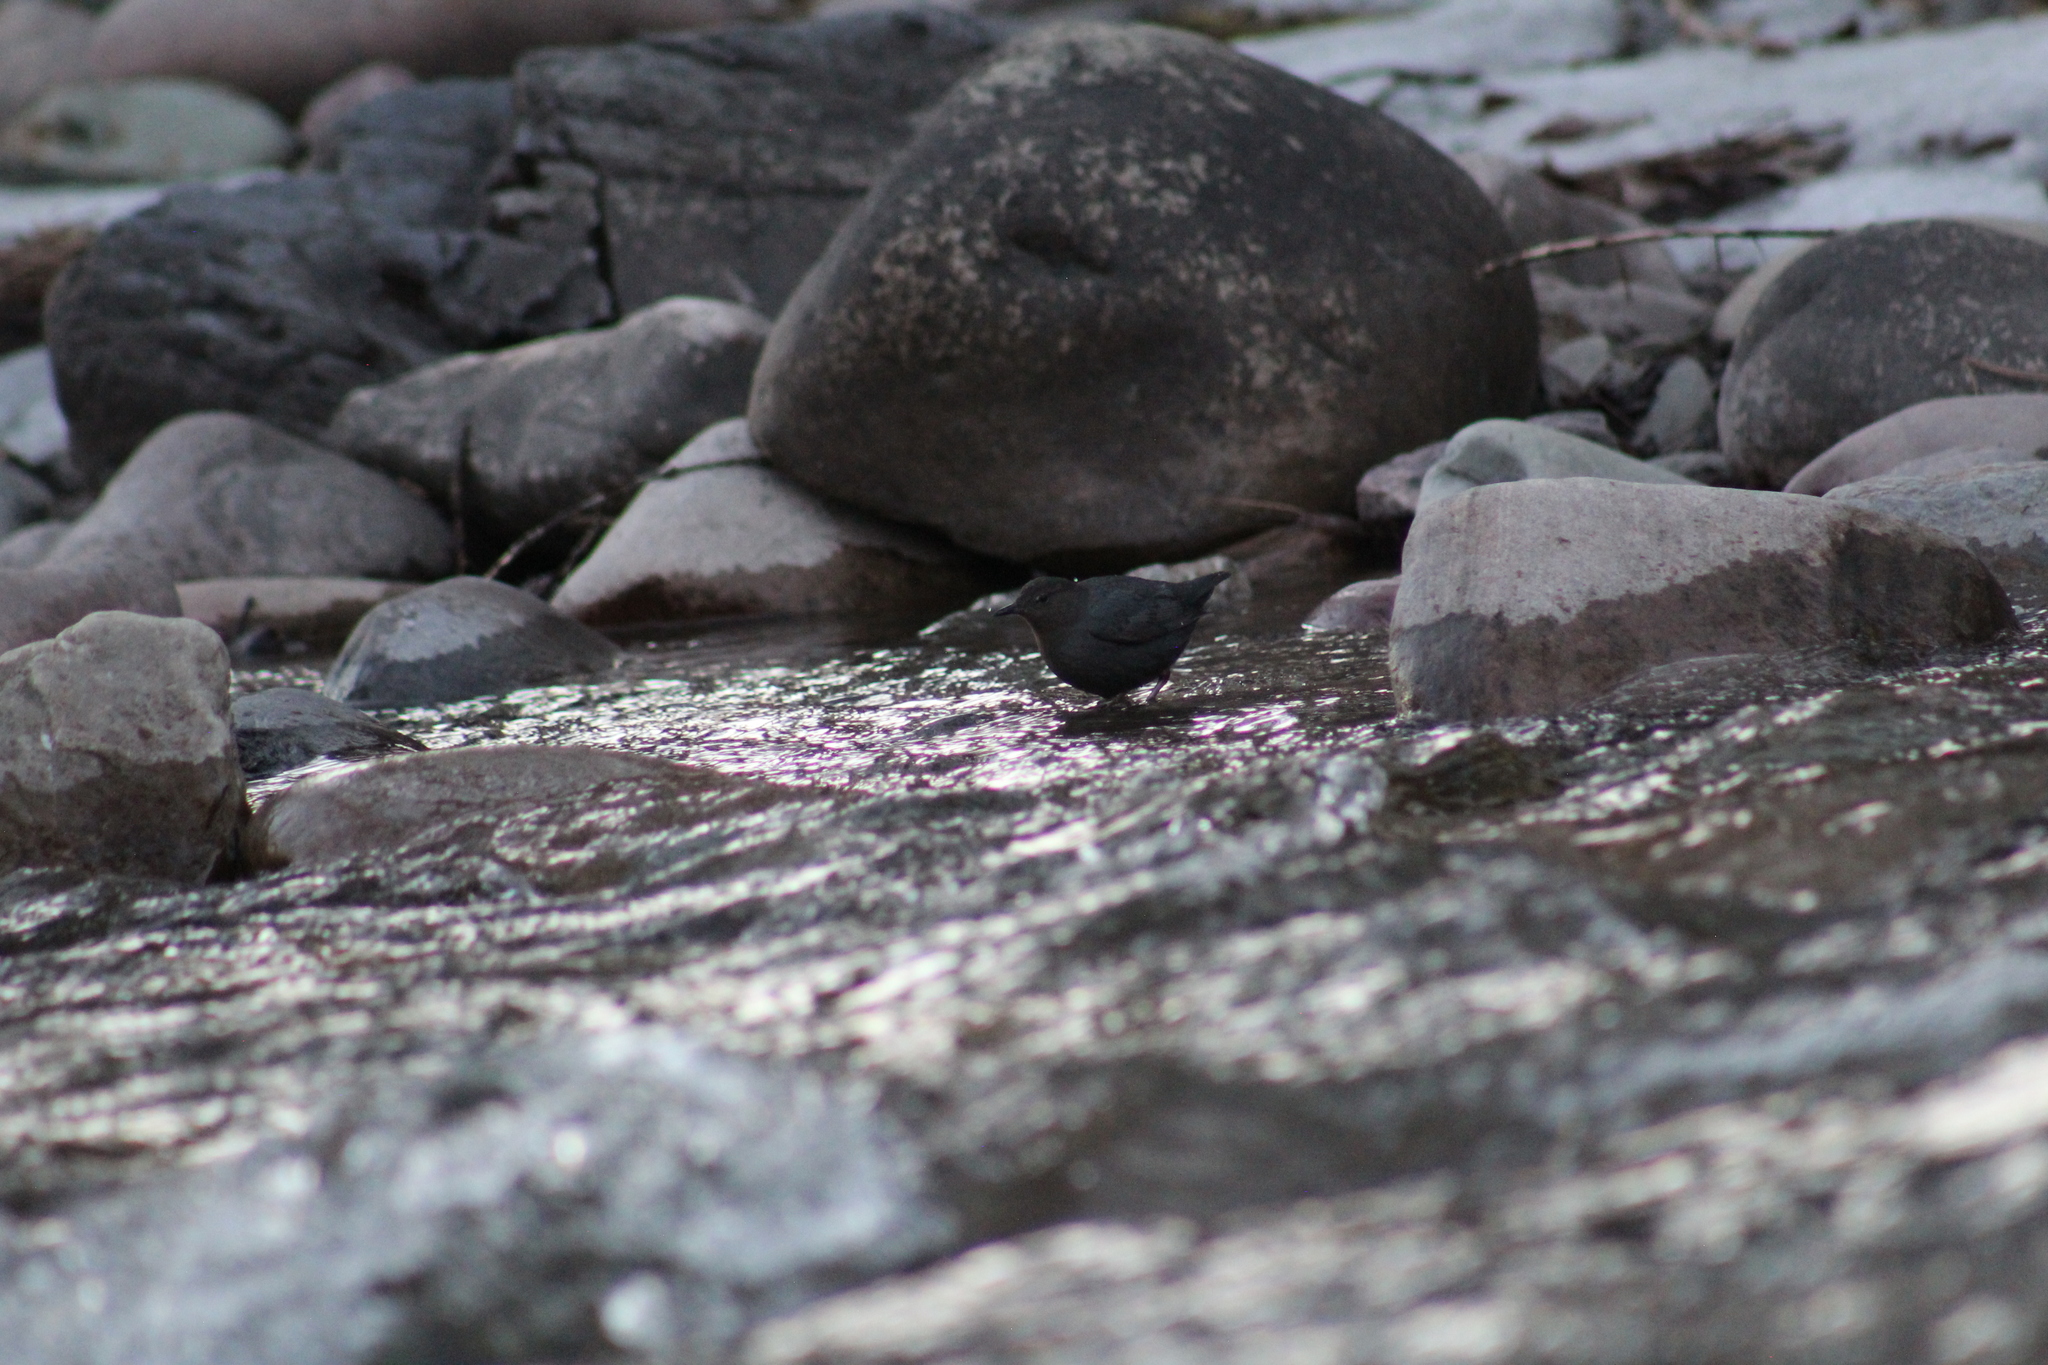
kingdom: Animalia
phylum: Chordata
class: Aves
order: Passeriformes
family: Cinclidae
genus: Cinclus
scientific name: Cinclus mexicanus
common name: American dipper
